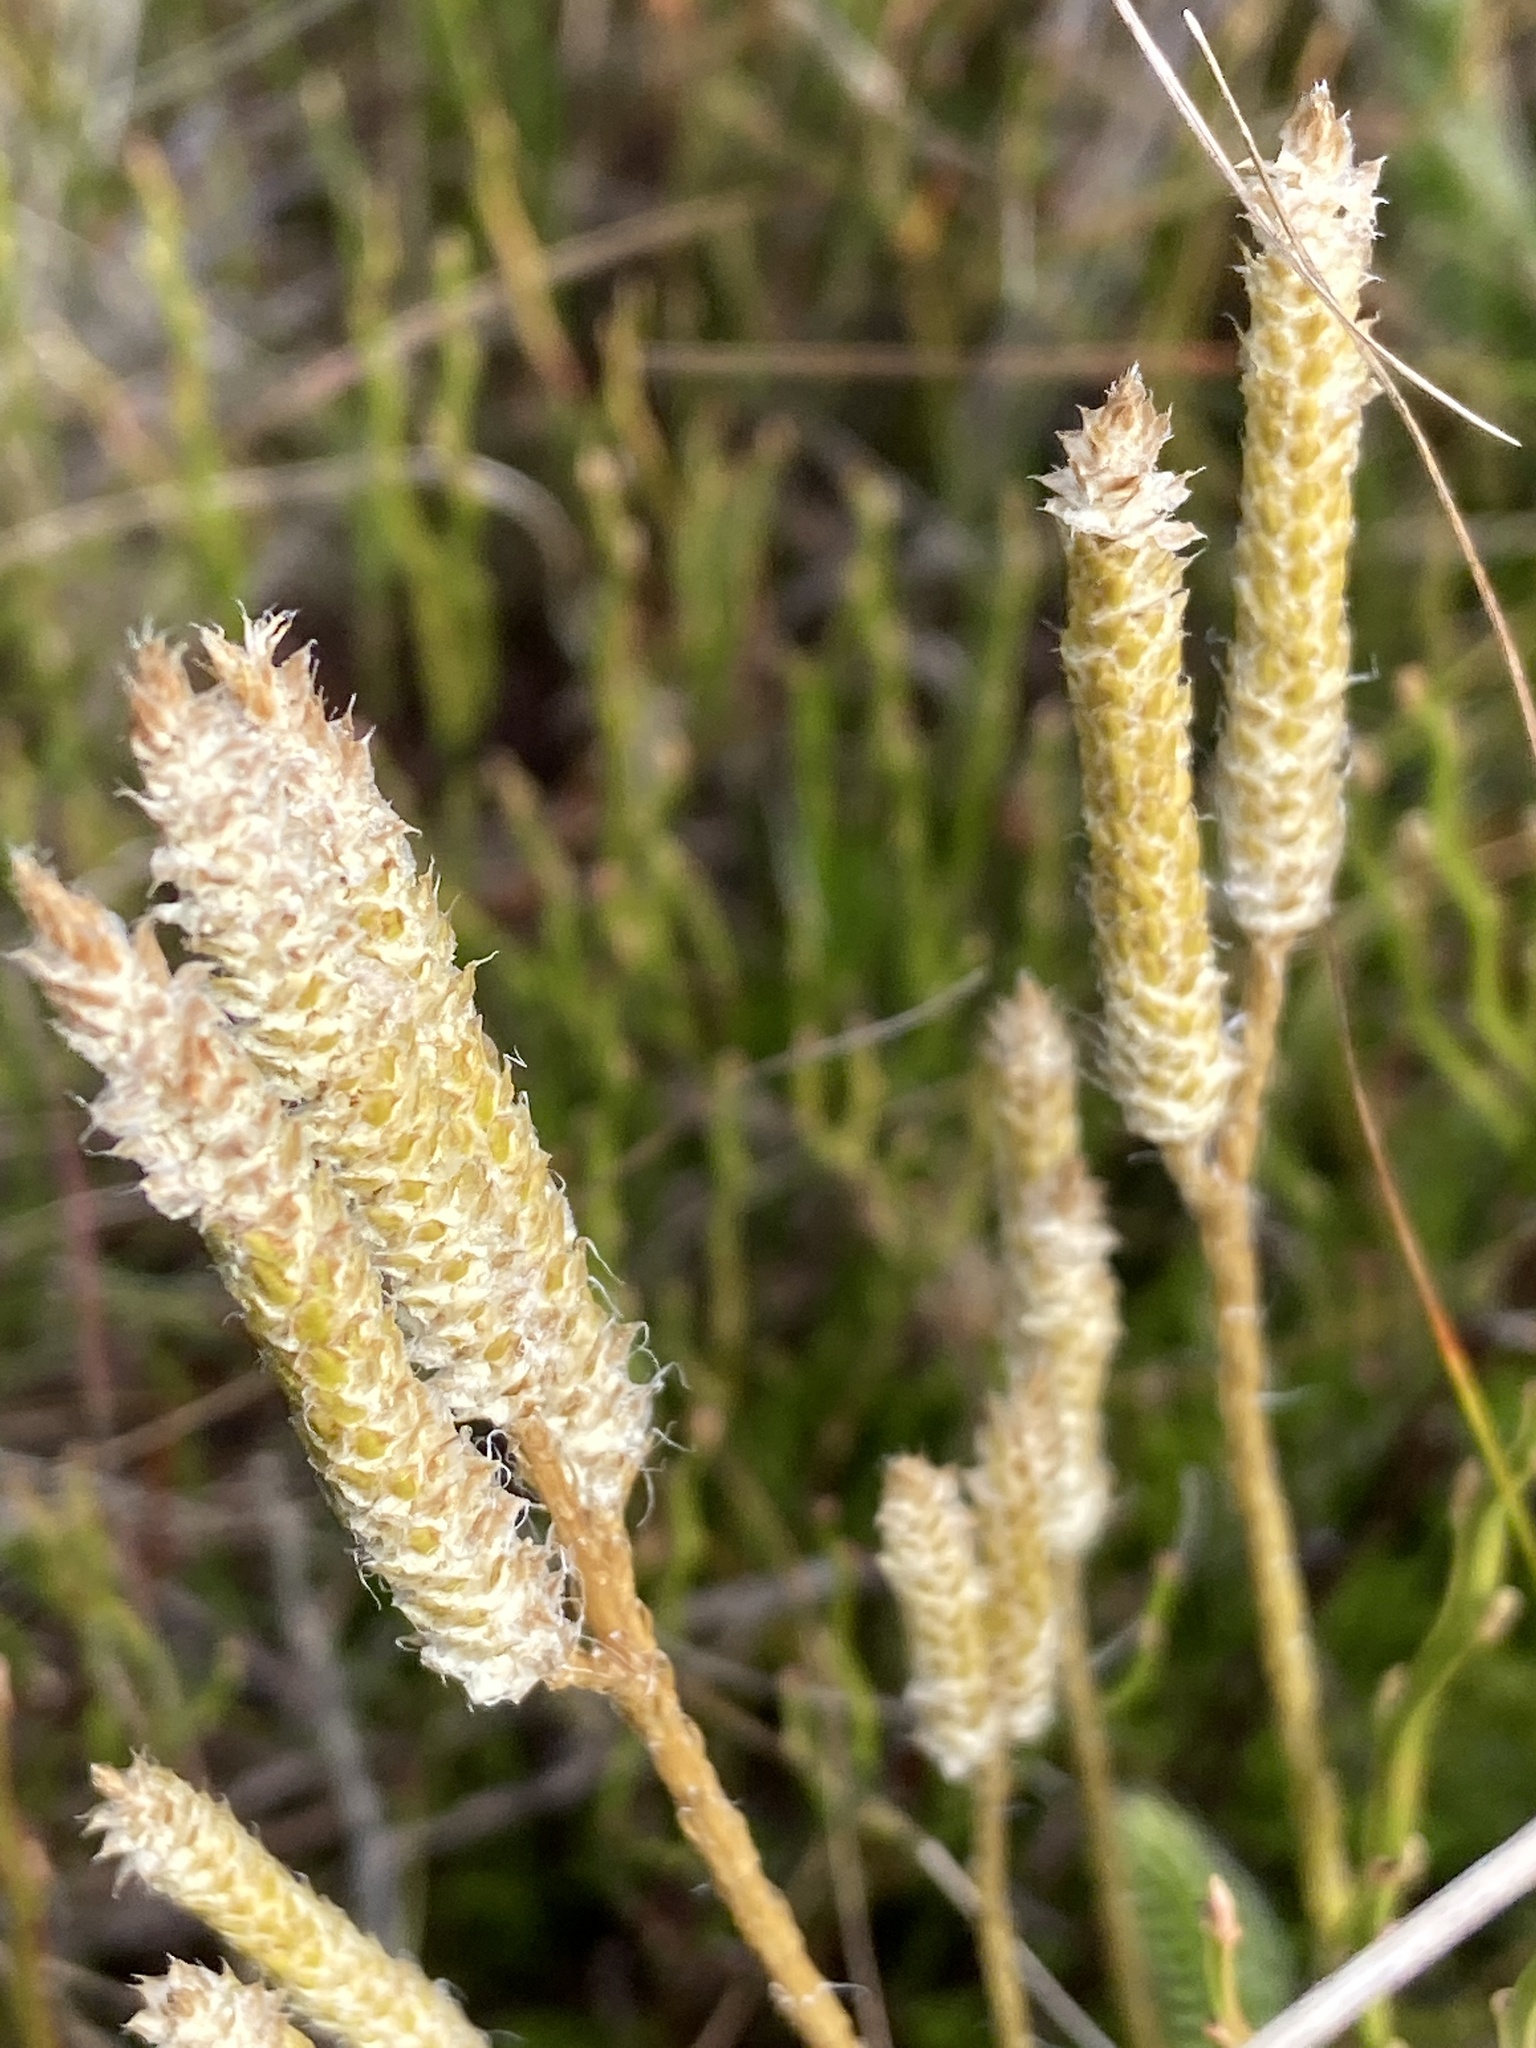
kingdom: Plantae
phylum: Tracheophyta
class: Lycopodiopsida
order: Lycopodiales
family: Lycopodiaceae
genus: Lycopodium
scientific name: Lycopodium clavatum
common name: Stag's-horn clubmoss
